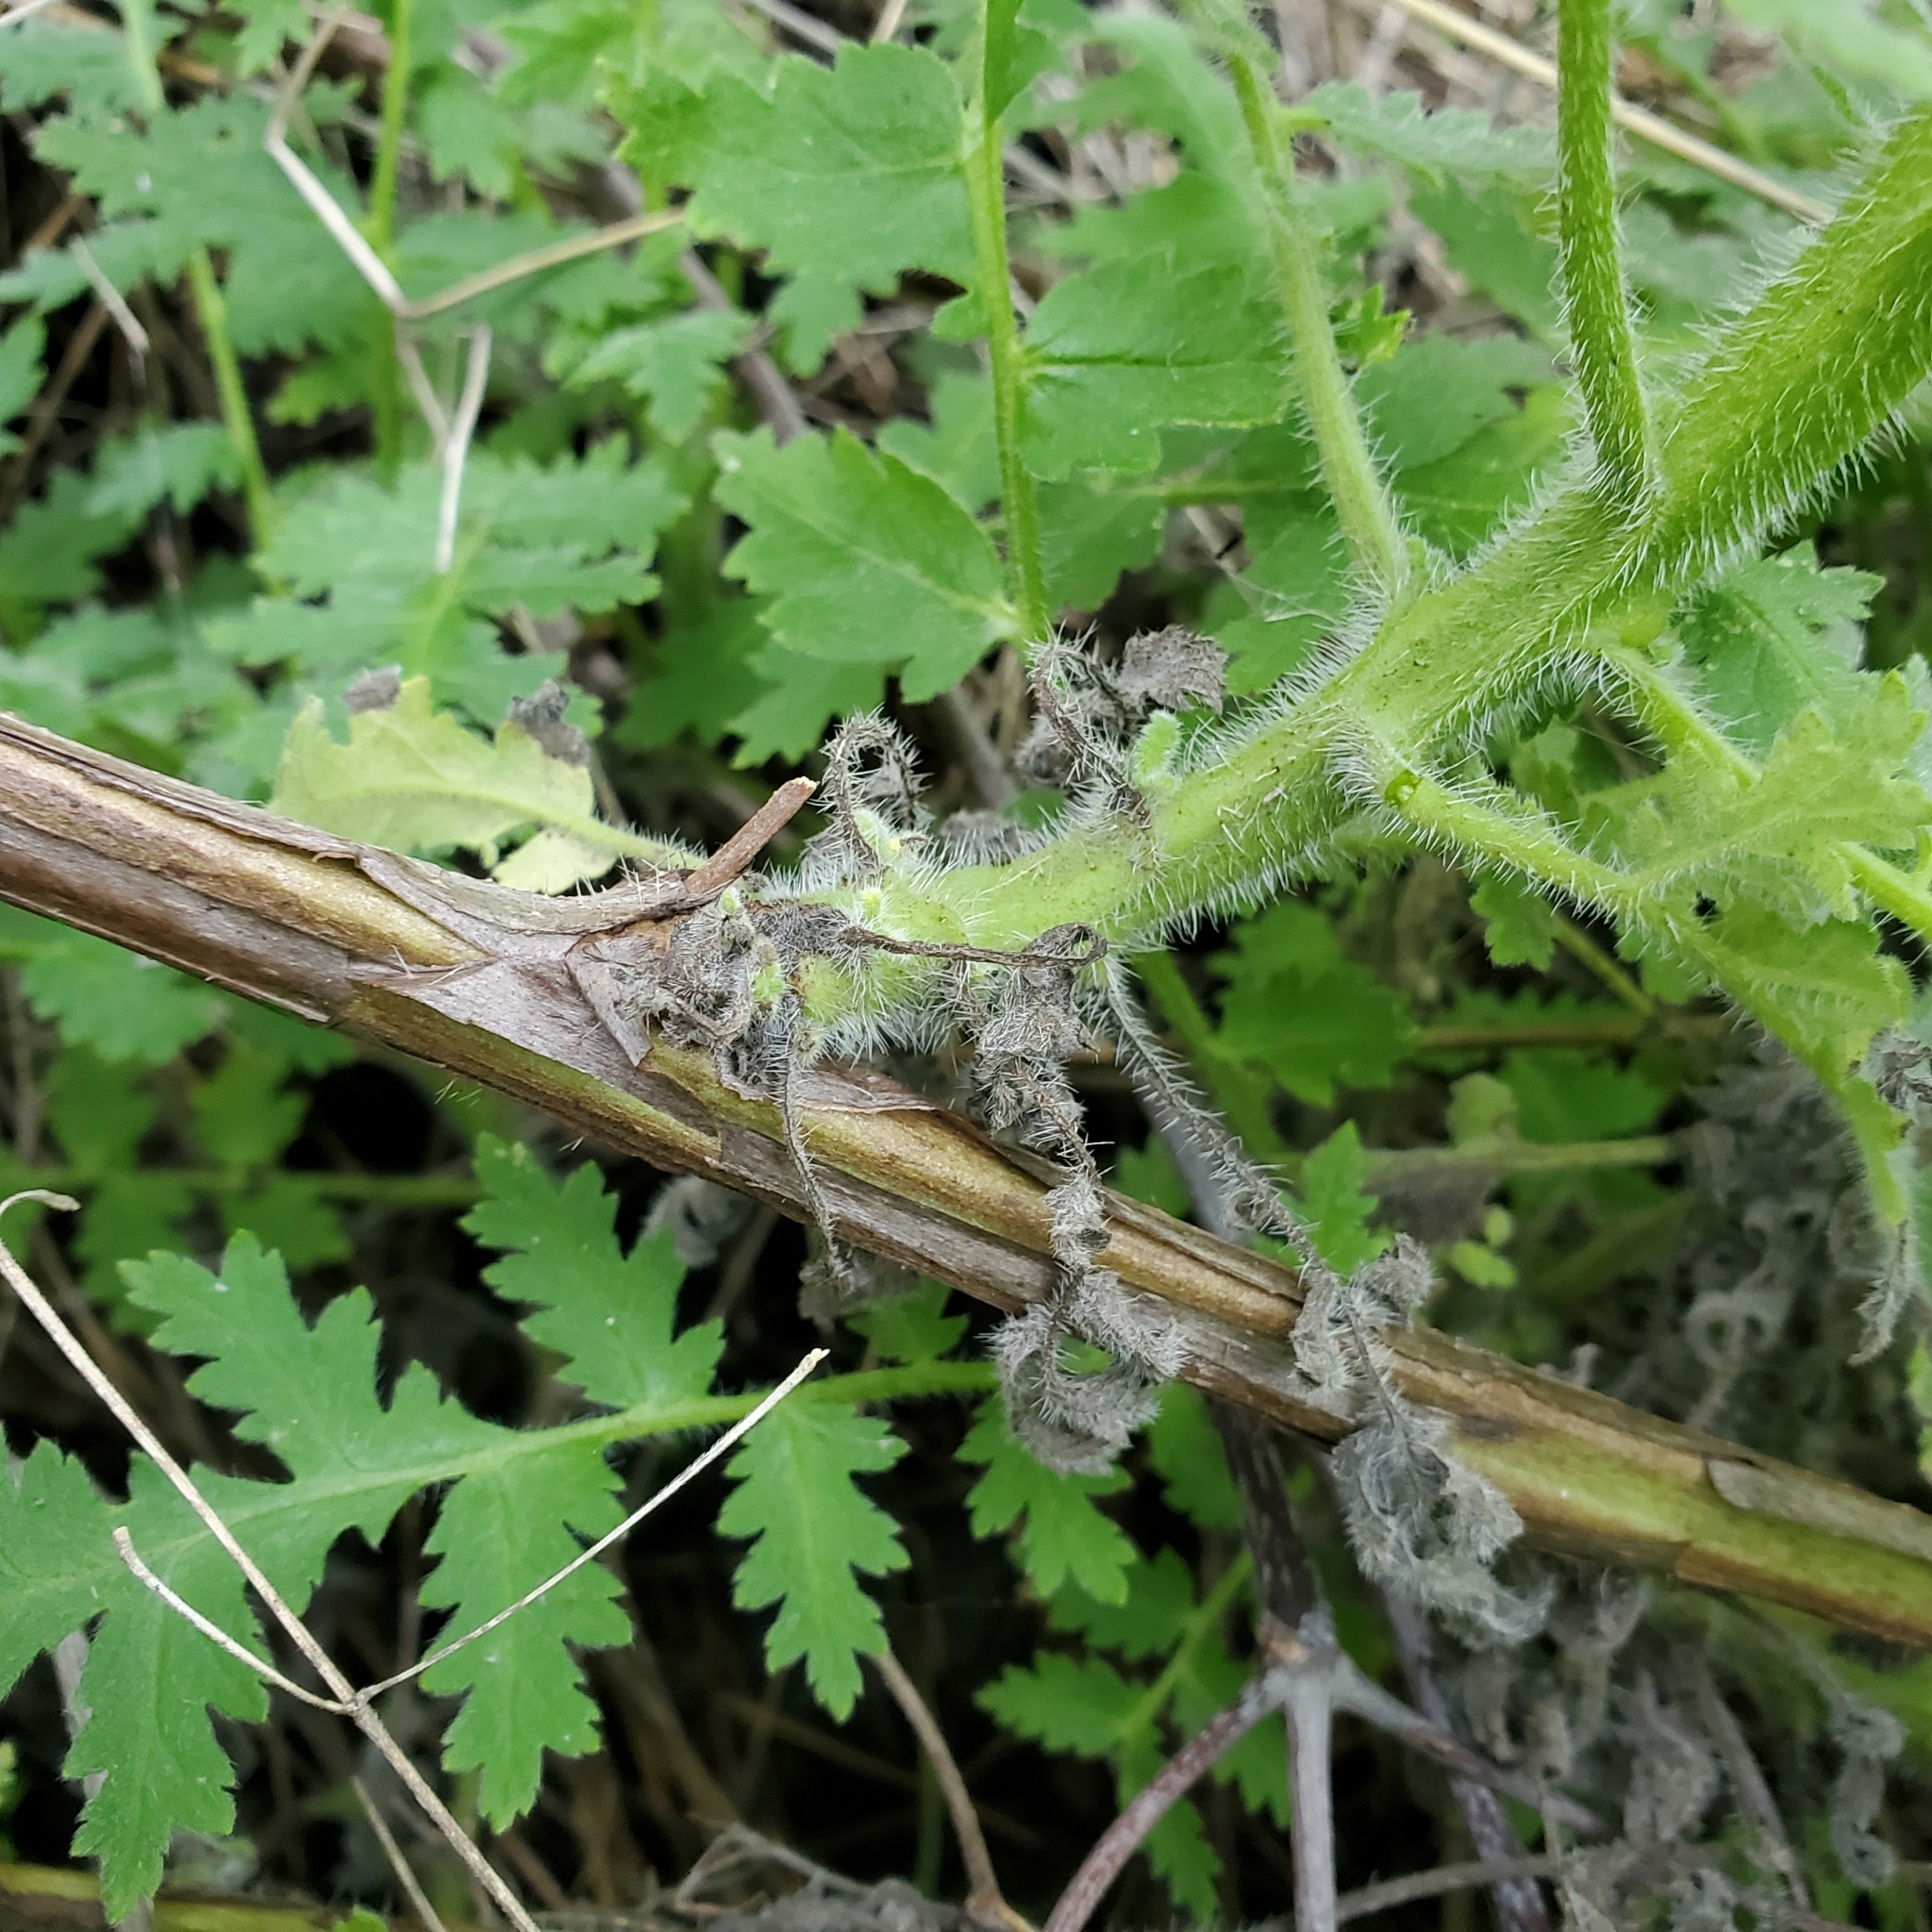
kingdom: Plantae
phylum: Tracheophyta
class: Magnoliopsida
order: Boraginales
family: Hydrophyllaceae
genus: Phacelia
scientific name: Phacelia ramosissima
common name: Branching phacelia
